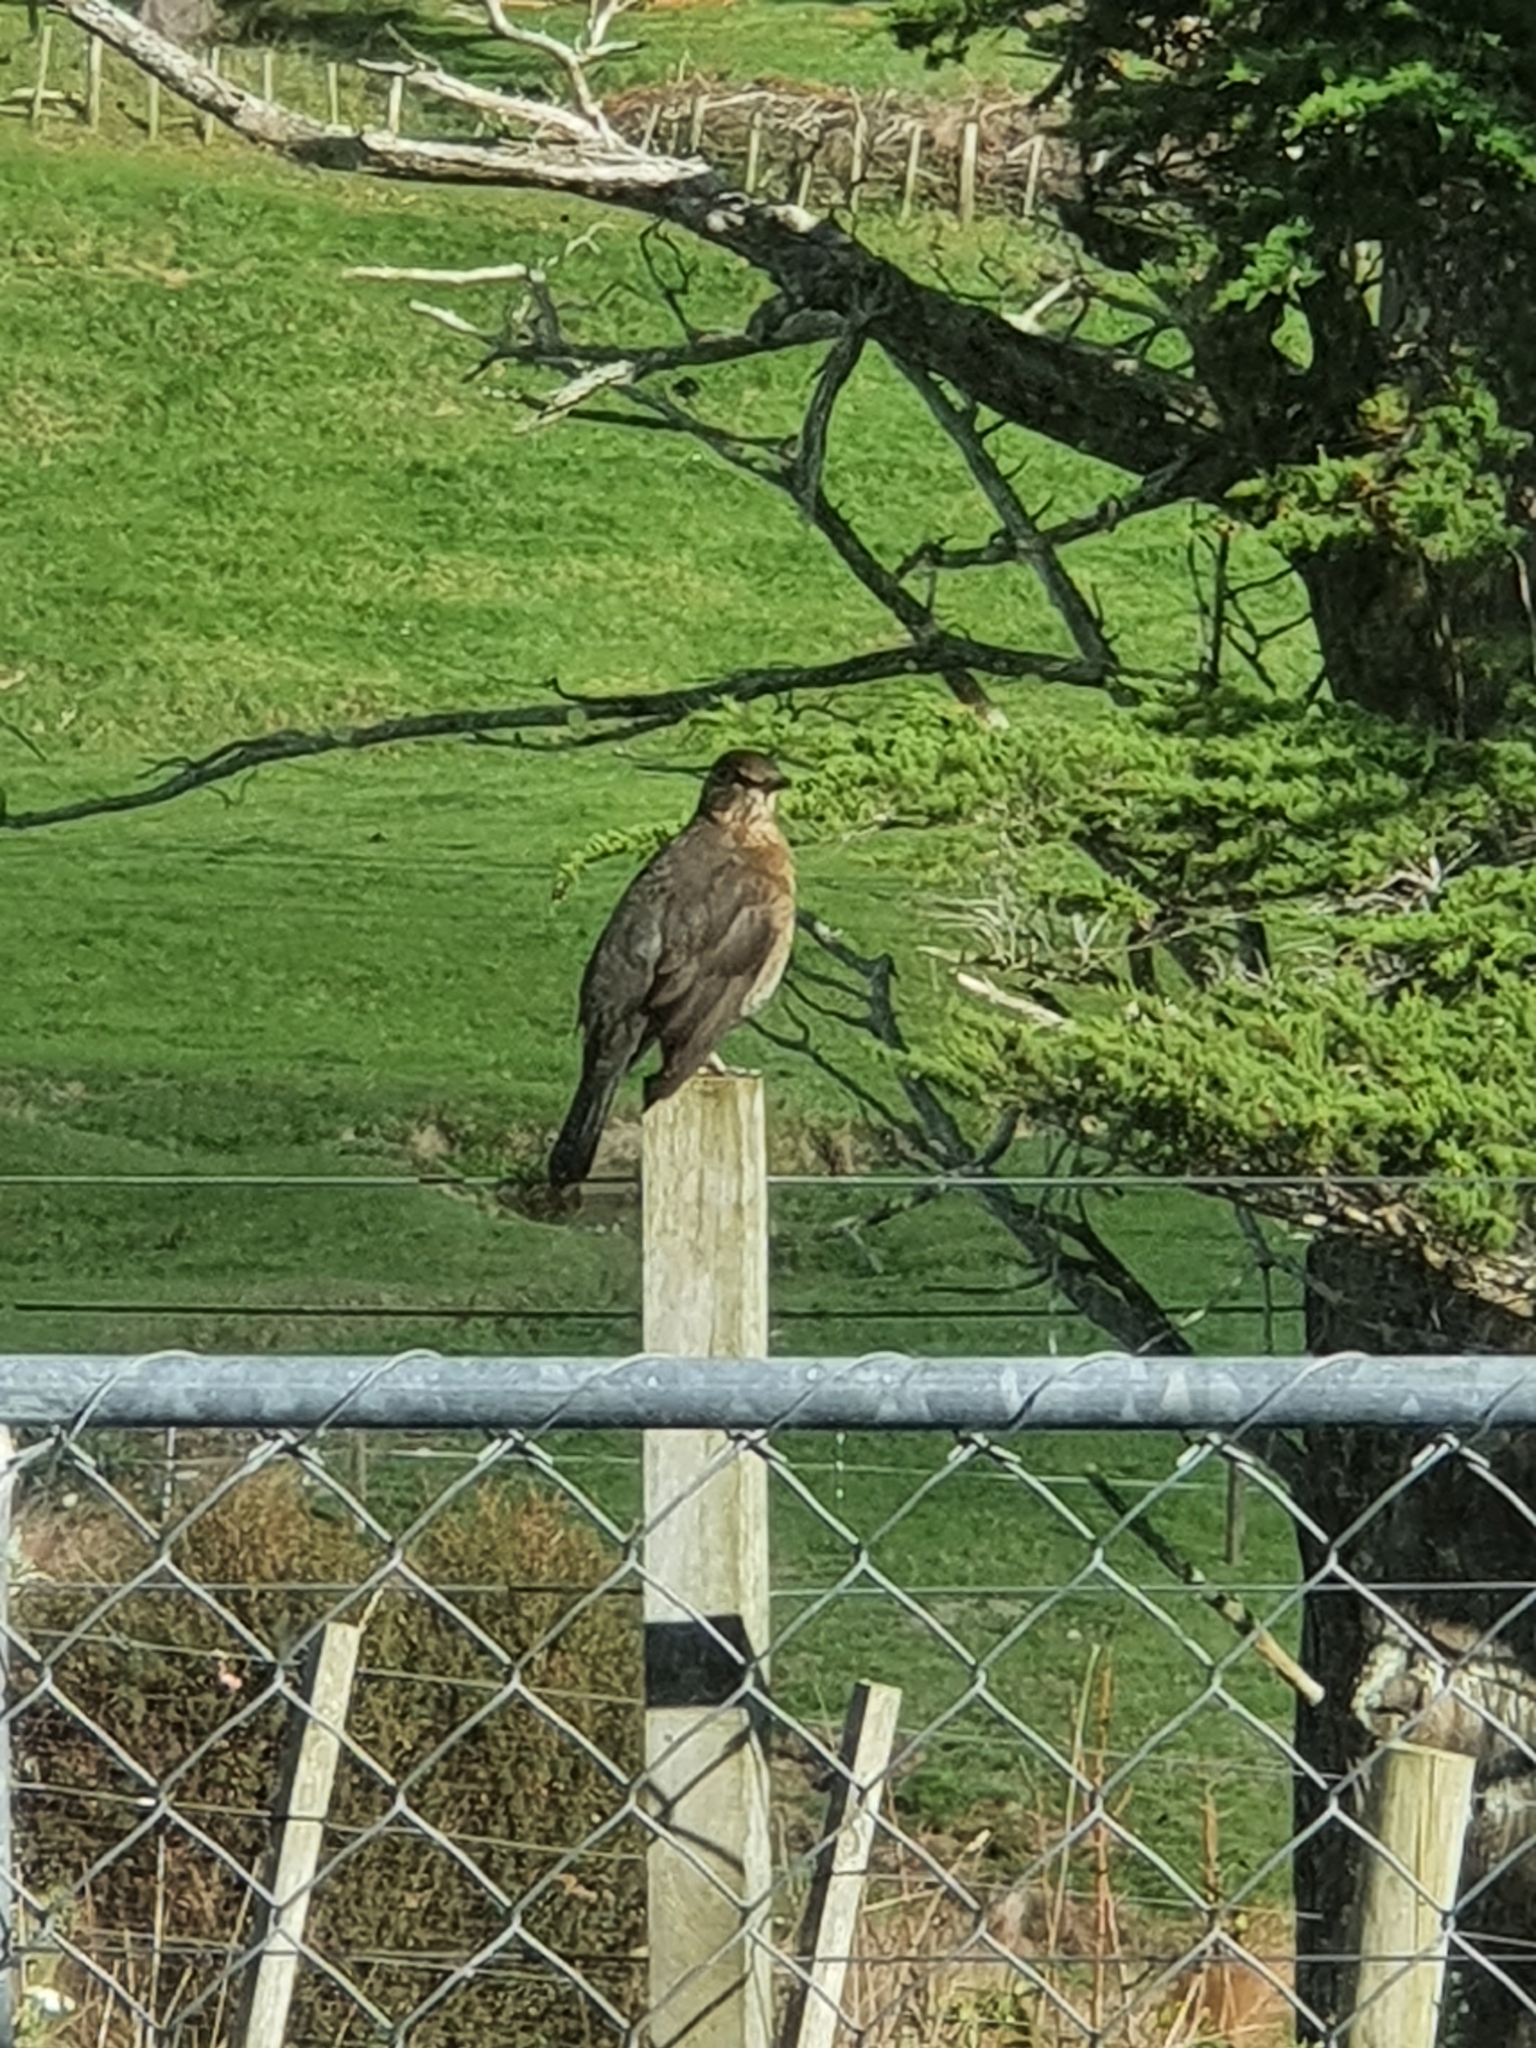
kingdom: Animalia
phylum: Chordata
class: Aves
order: Passeriformes
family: Turdidae
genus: Turdus
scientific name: Turdus merula
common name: Common blackbird
